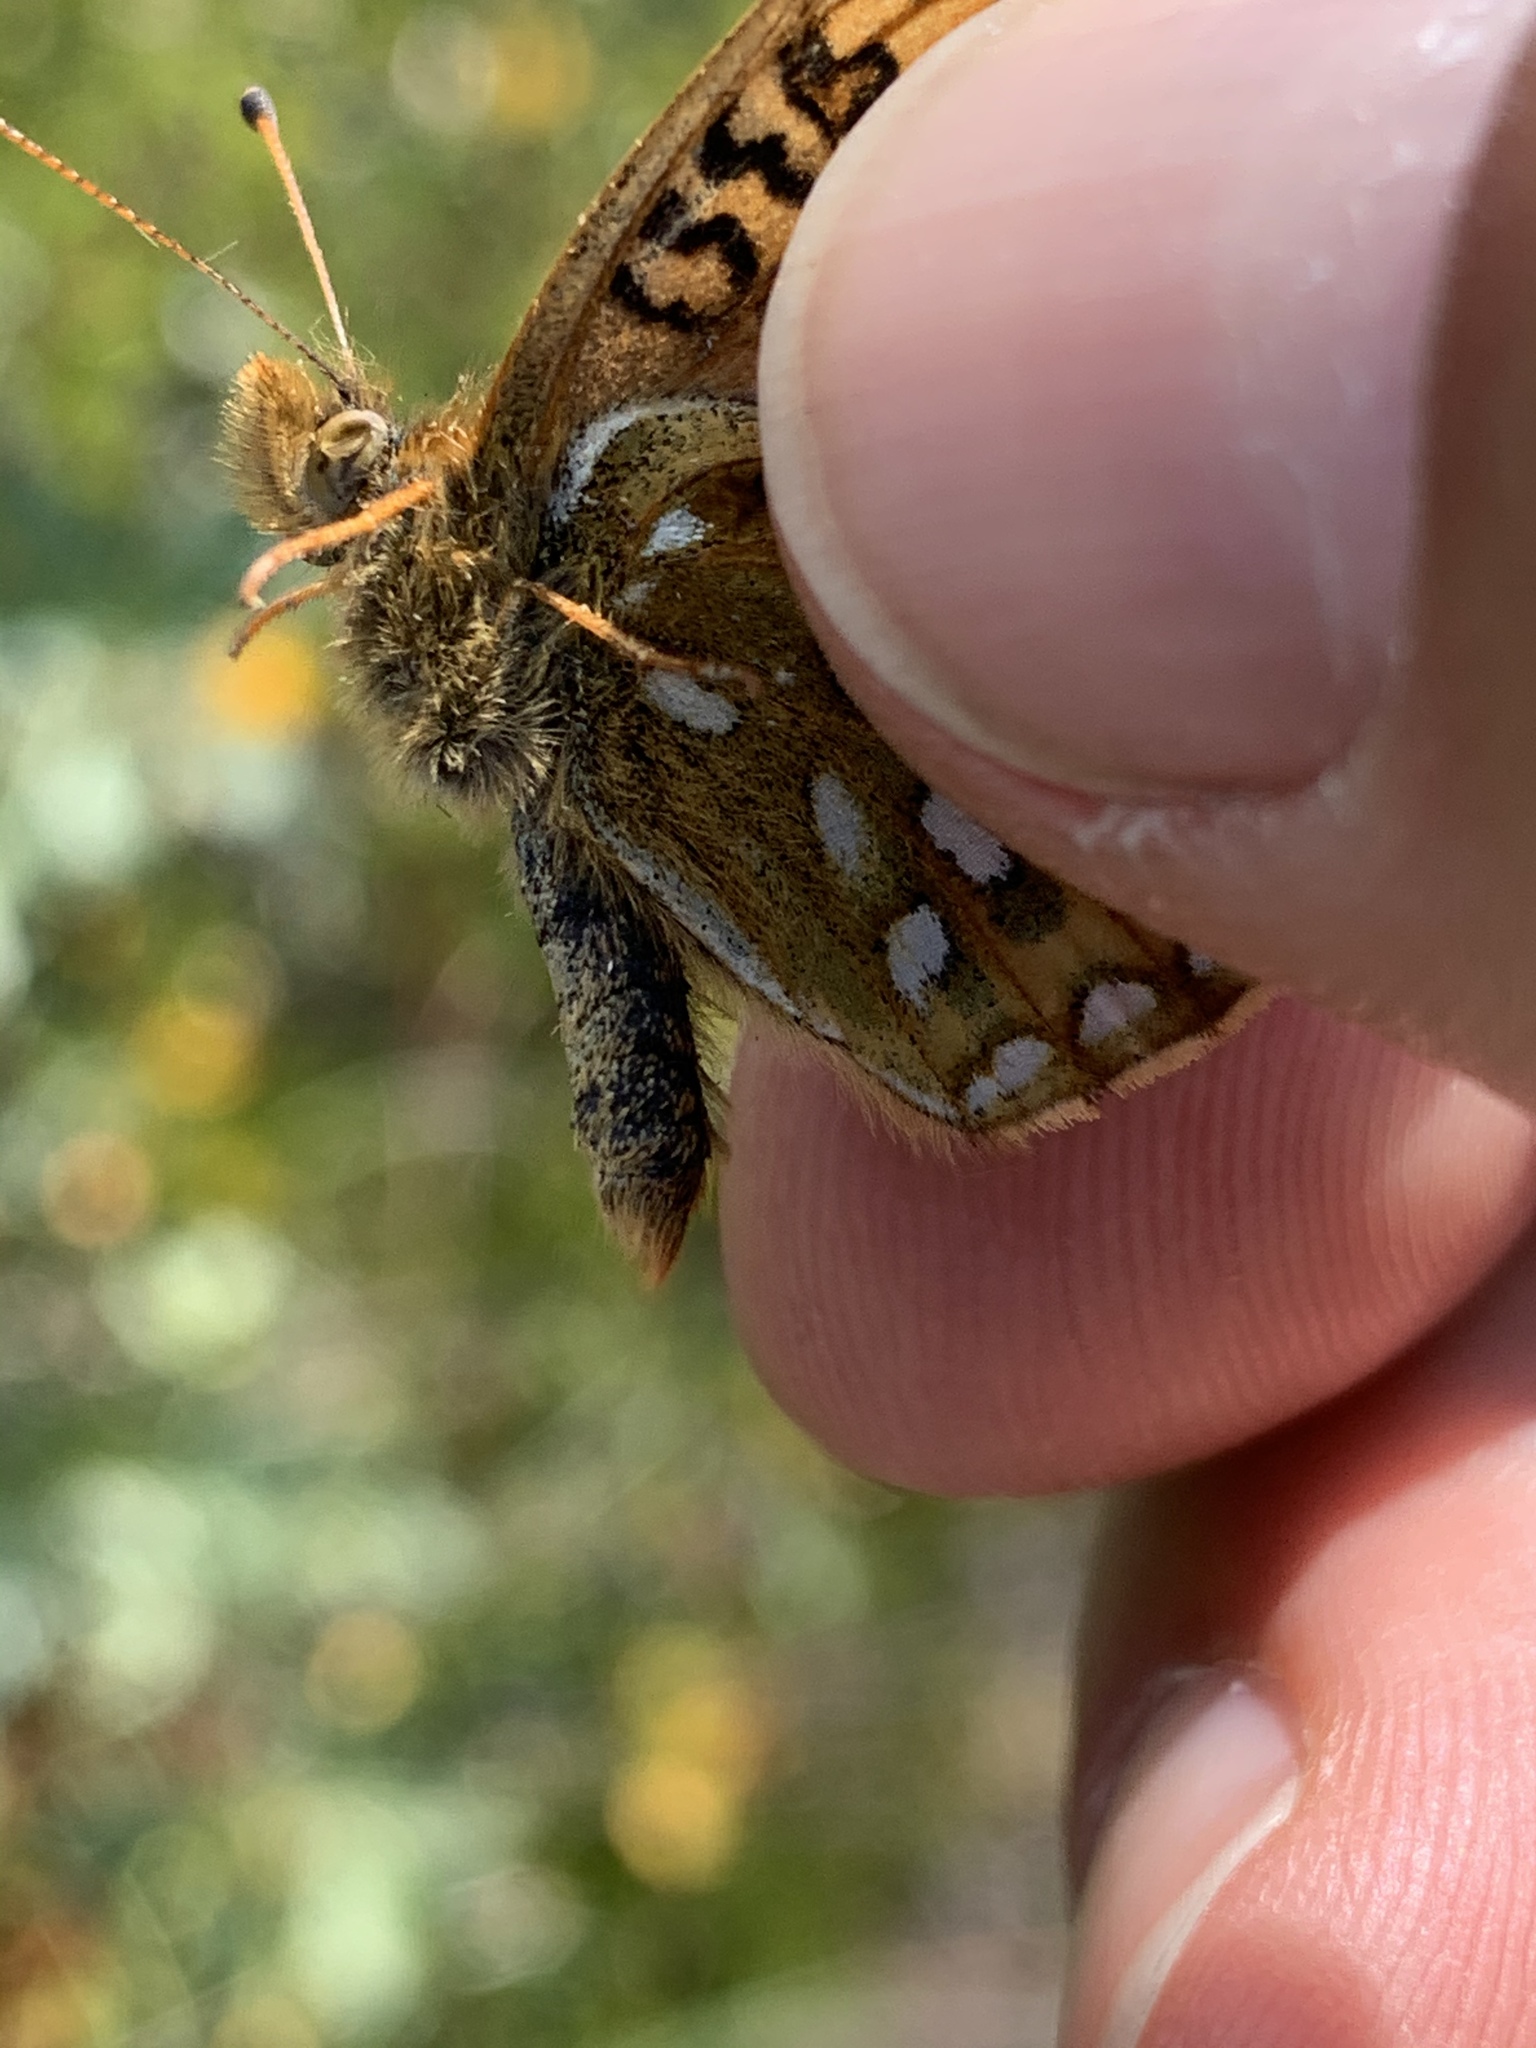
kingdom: Animalia
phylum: Arthropoda
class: Insecta
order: Lepidoptera
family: Nymphalidae
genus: Speyeria
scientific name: Speyeria mormonia
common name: Mormon fritillary
